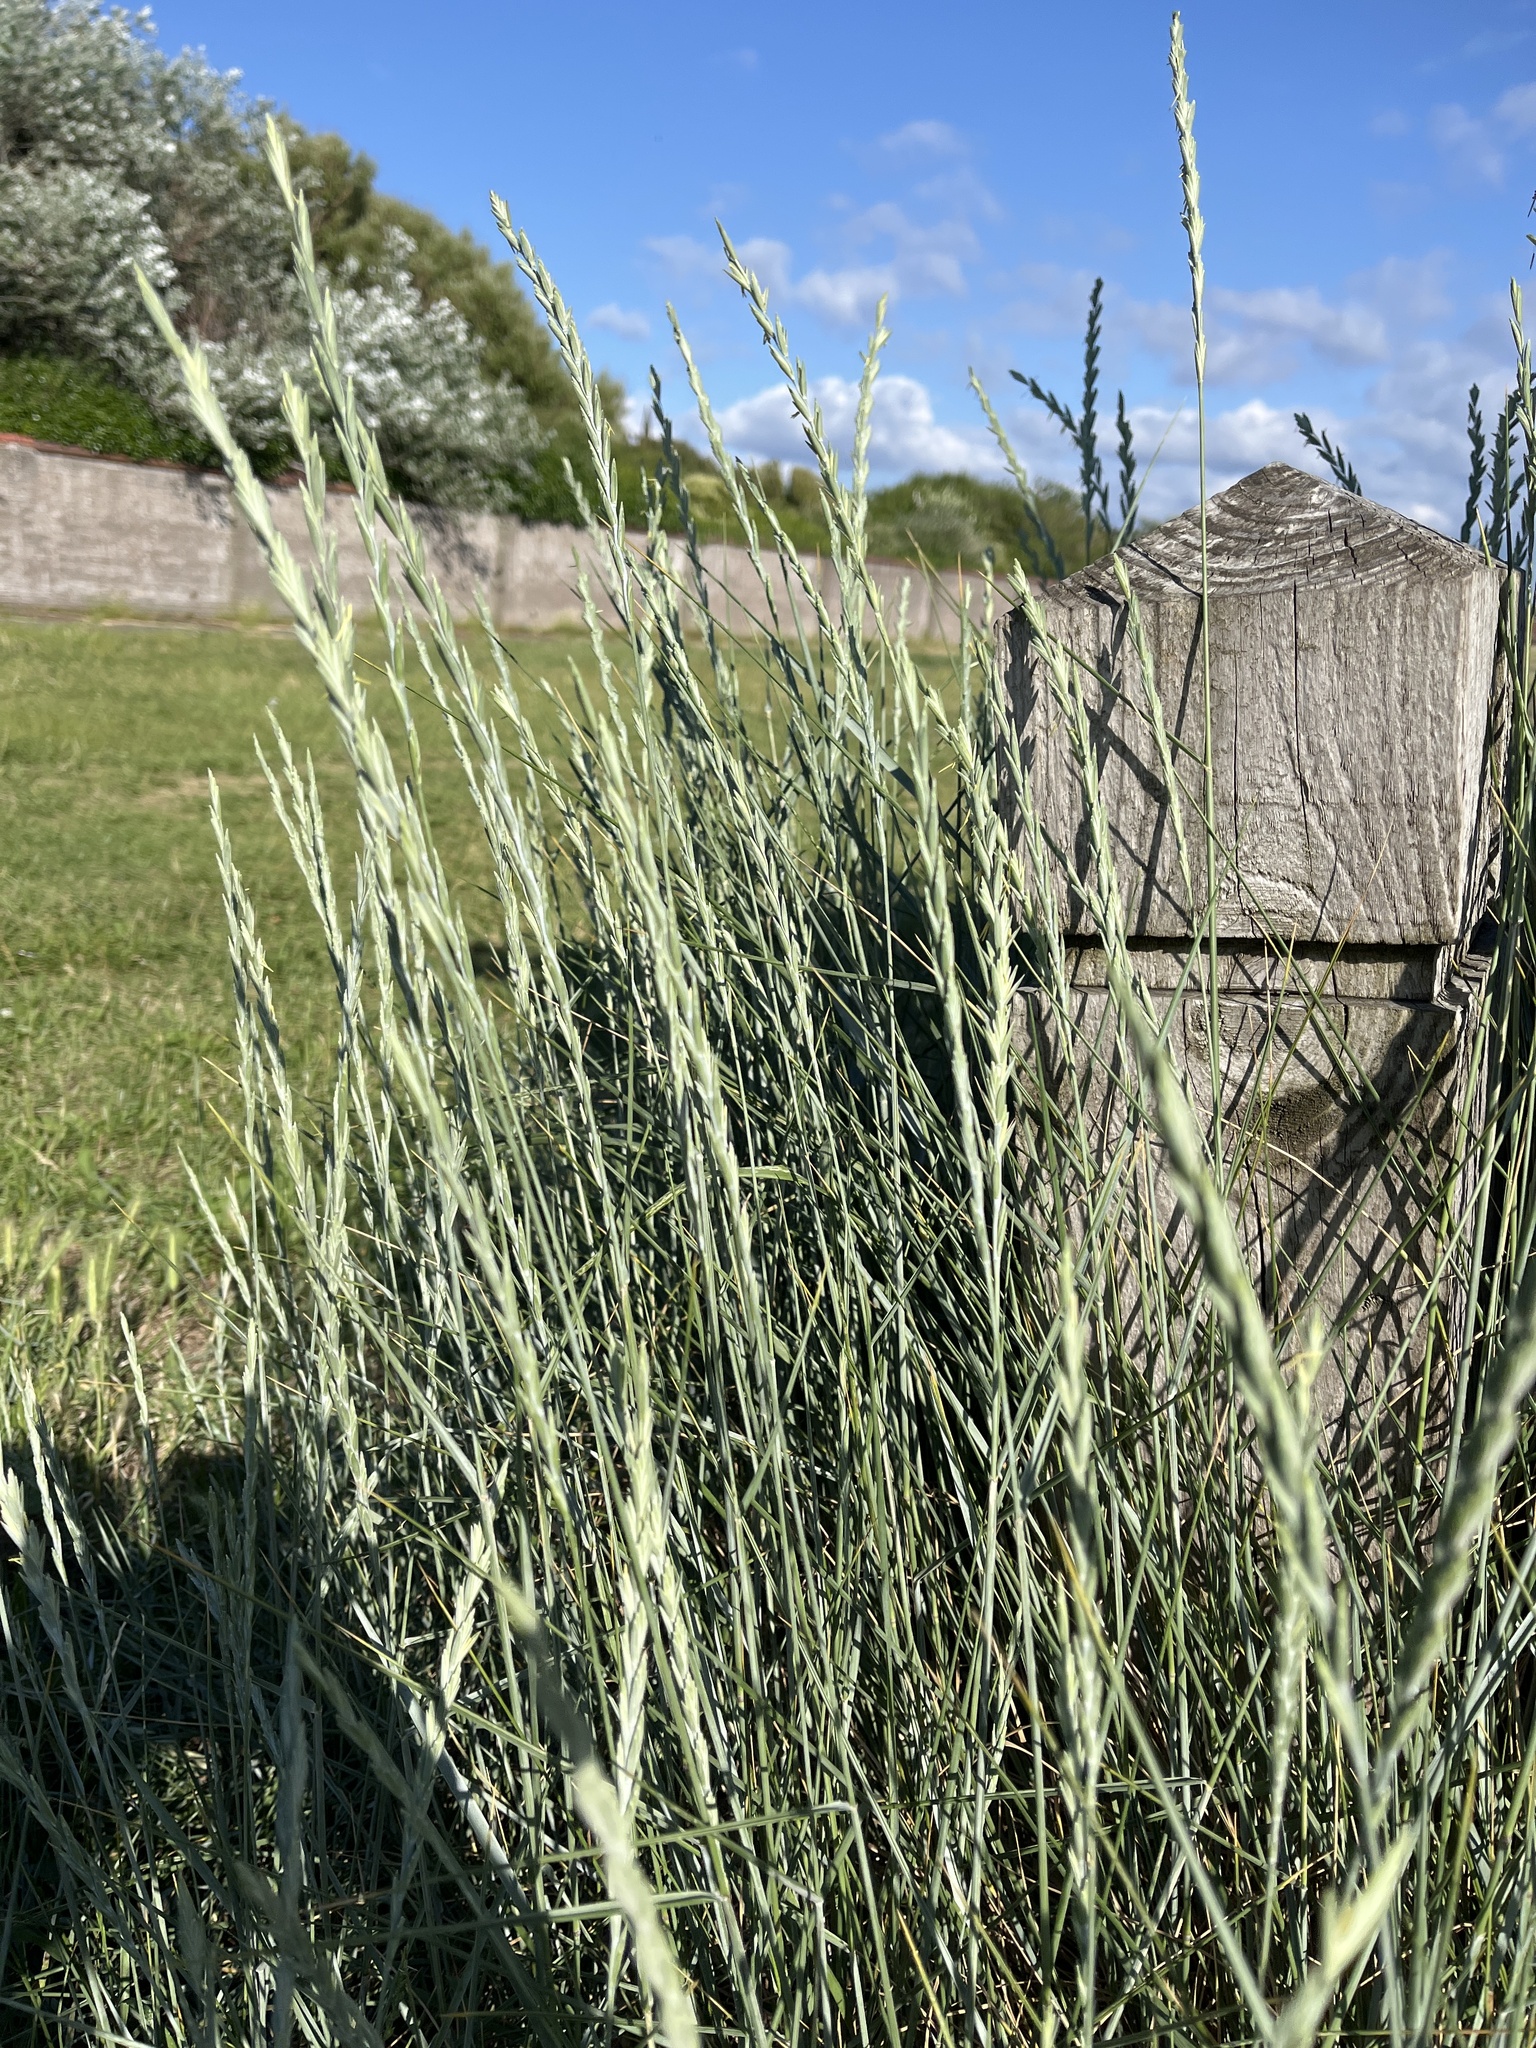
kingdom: Plantae
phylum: Tracheophyta
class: Liliopsida
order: Poales
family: Poaceae
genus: Thinopyrum
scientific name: Thinopyrum junceum
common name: Russian wheatgrass
